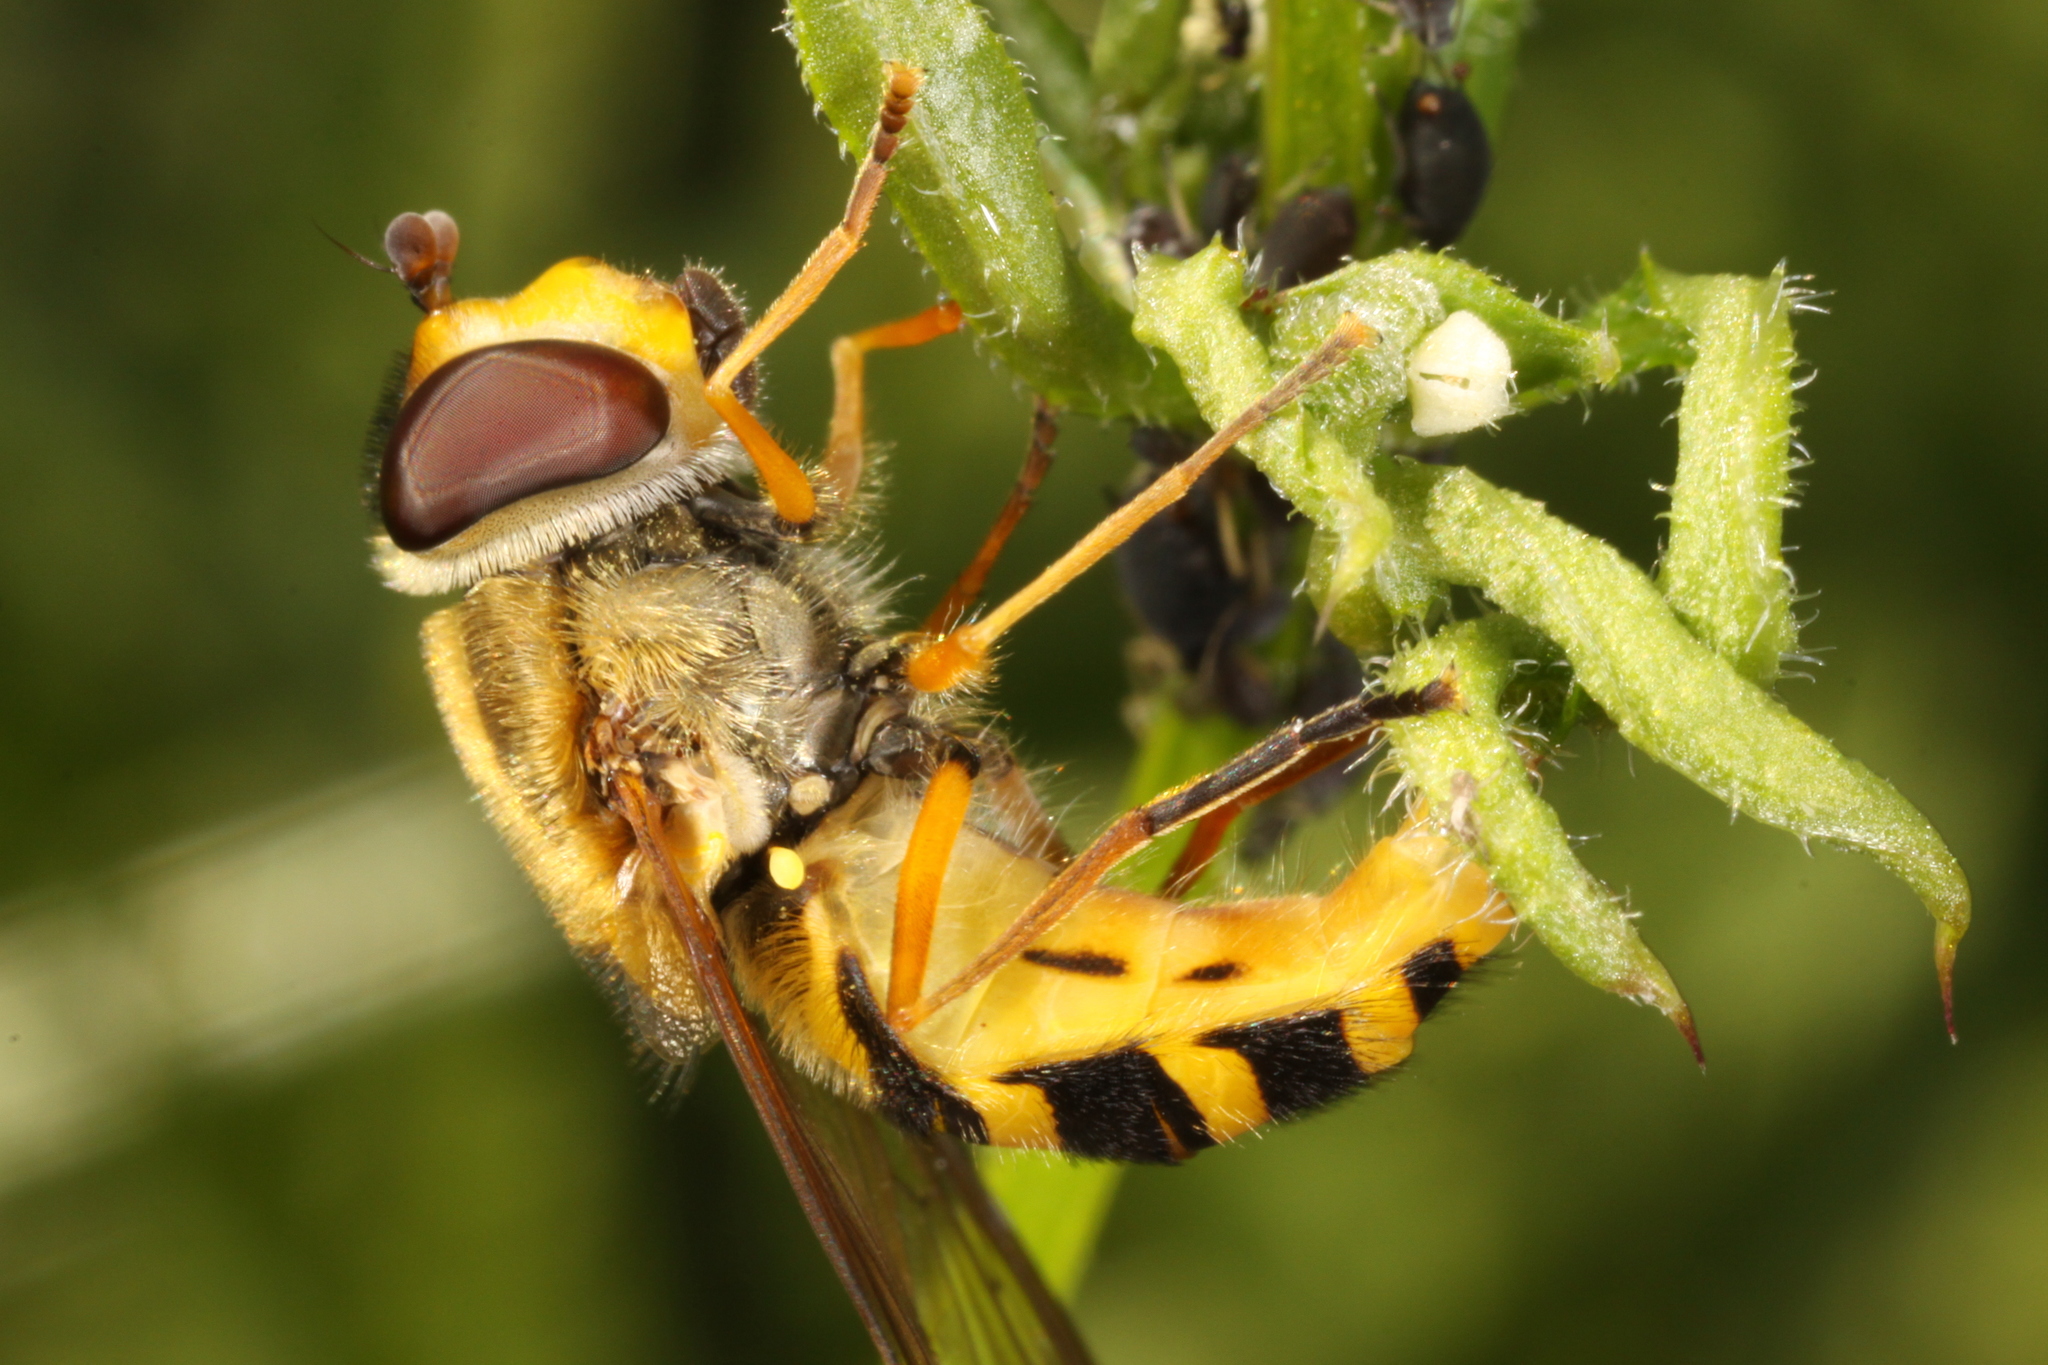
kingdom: Animalia
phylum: Arthropoda
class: Insecta
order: Diptera
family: Syrphidae
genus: Syrphus
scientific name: Syrphus ribesii
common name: Common flower fly
